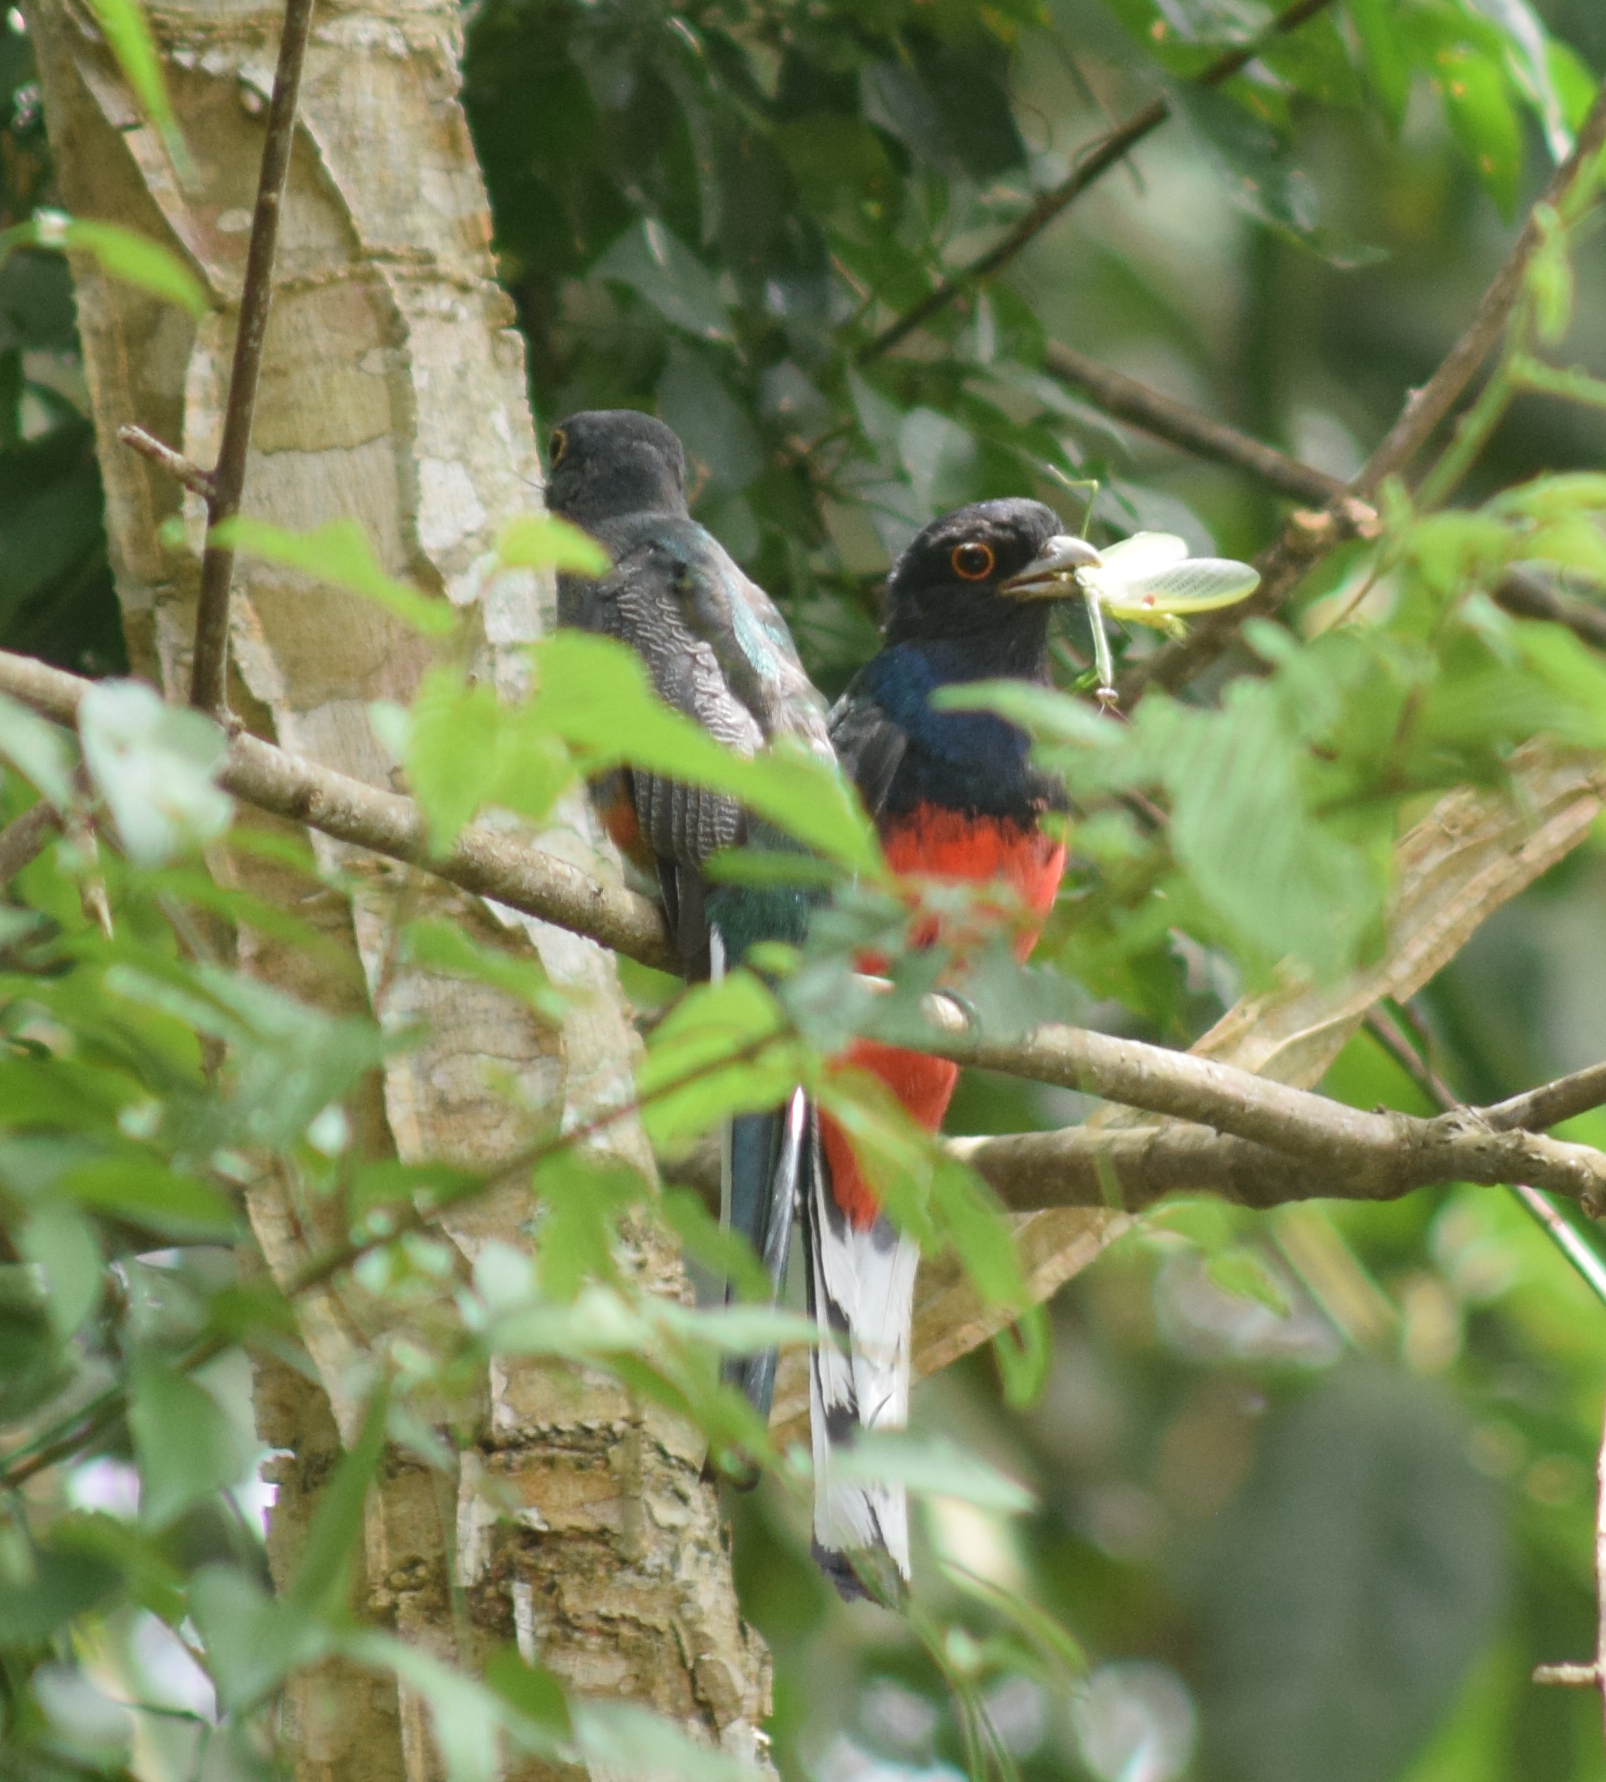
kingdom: Animalia
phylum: Chordata
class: Aves
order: Trogoniformes
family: Trogonidae
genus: Trogon
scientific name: Trogon surrucura
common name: Surucua trogon
